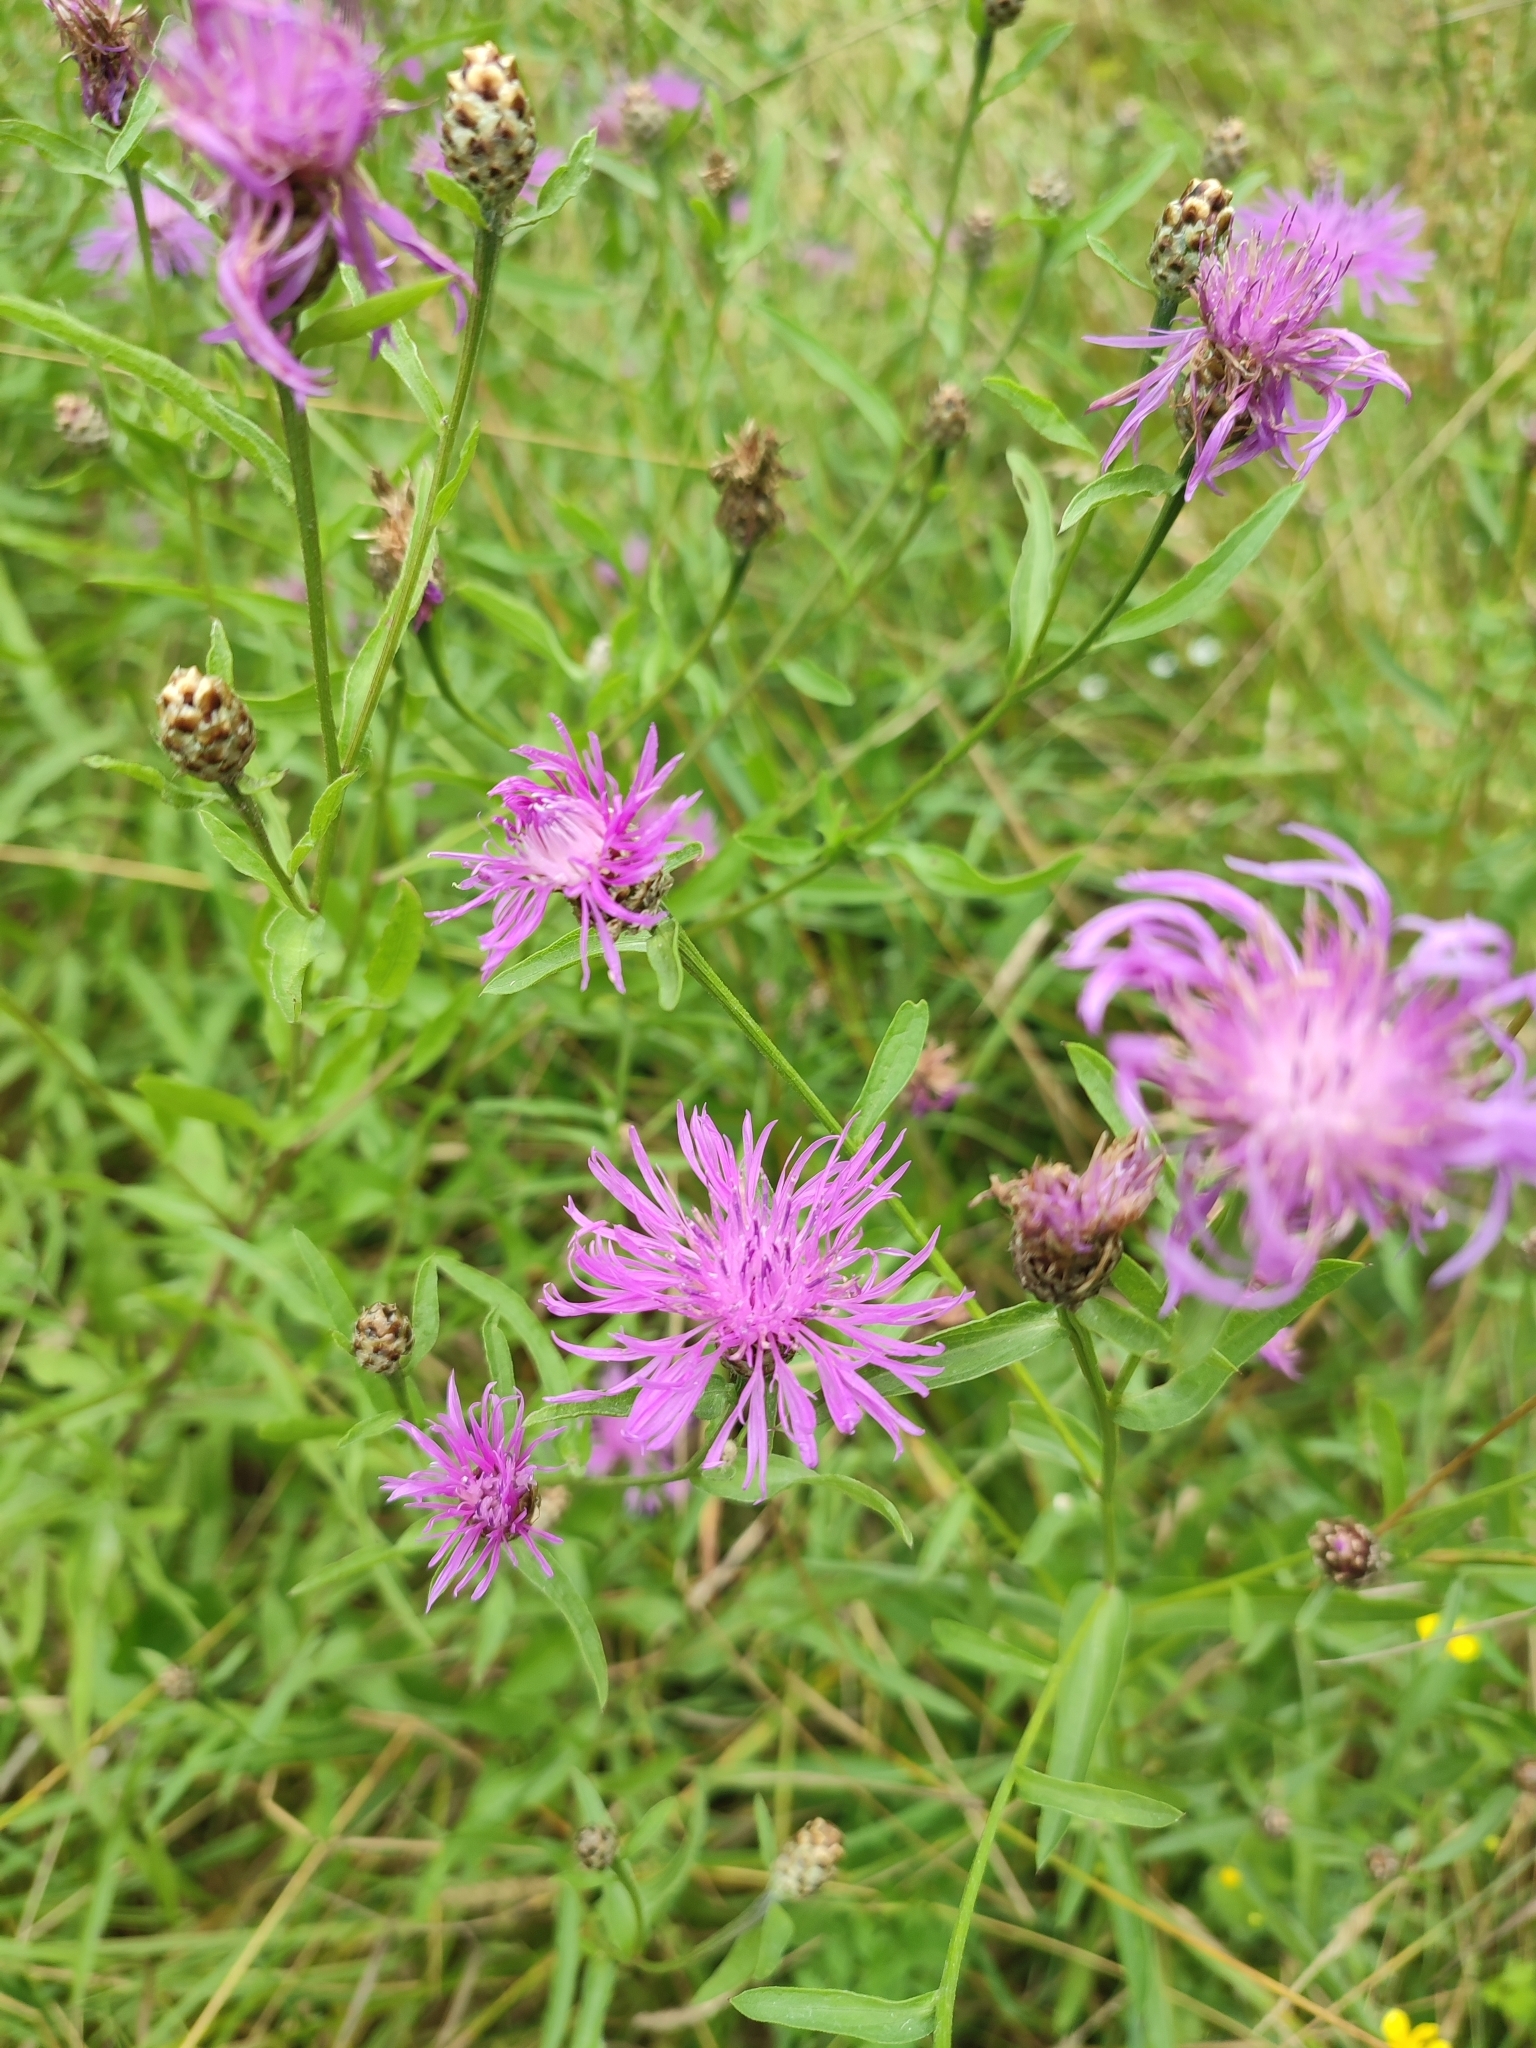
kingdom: Plantae
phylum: Tracheophyta
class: Magnoliopsida
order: Asterales
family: Asteraceae
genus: Centaurea
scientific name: Centaurea jacea
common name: Brown knapweed
